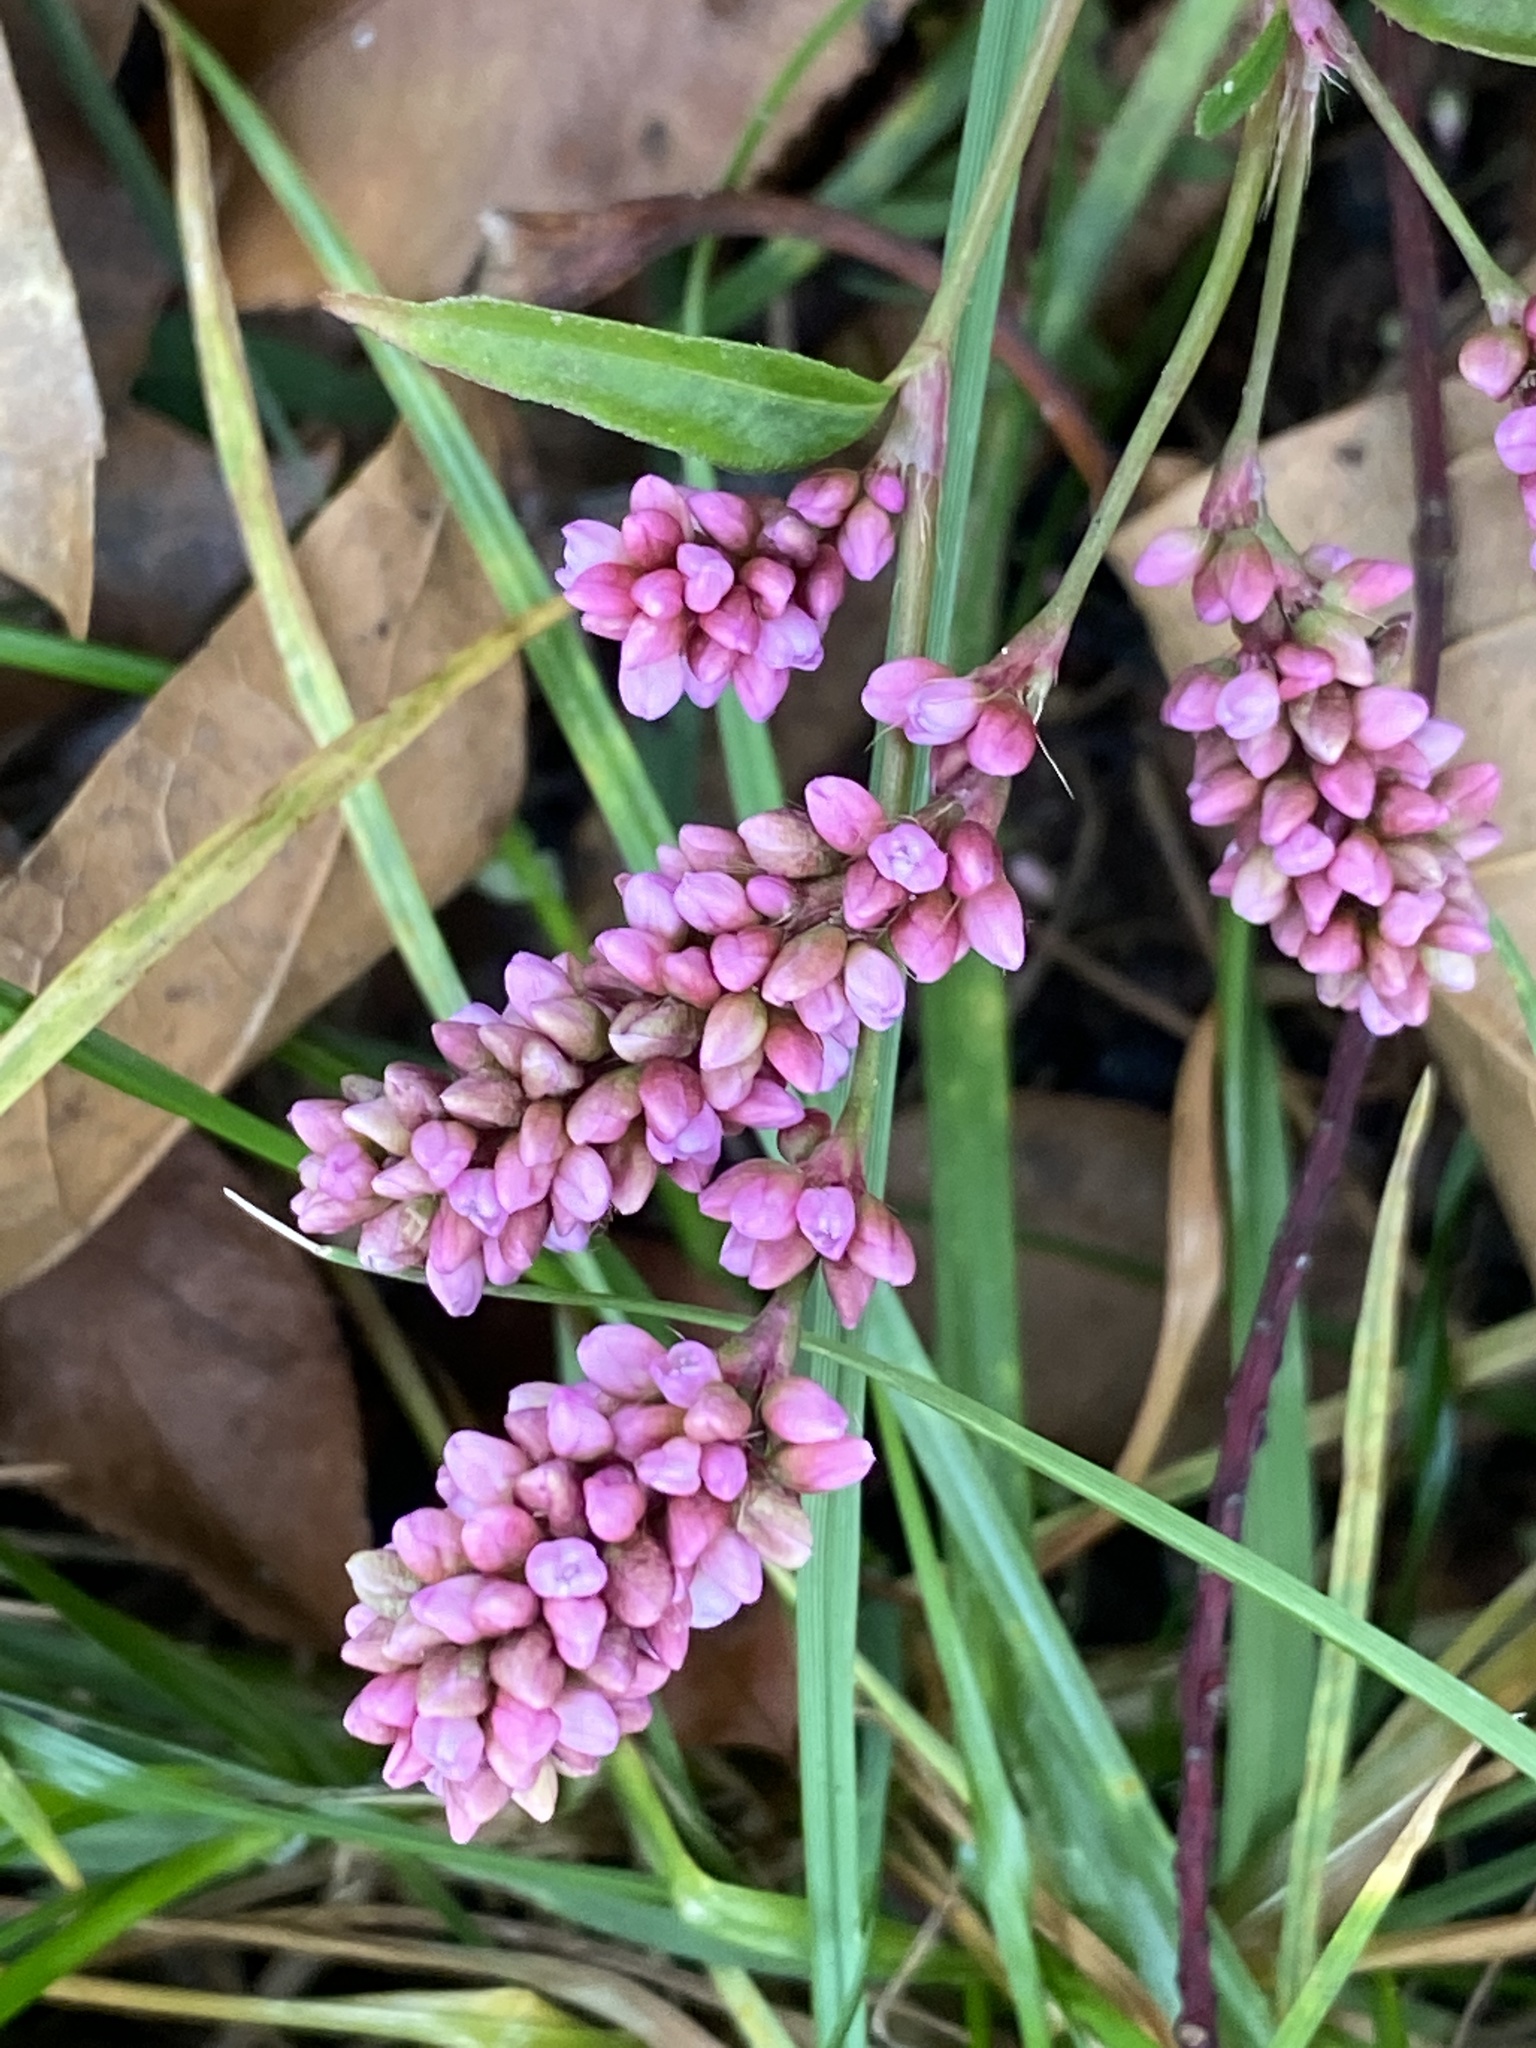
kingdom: Plantae
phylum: Tracheophyta
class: Magnoliopsida
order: Caryophyllales
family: Polygonaceae
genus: Persicaria
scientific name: Persicaria longiseta
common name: Bristly lady's-thumb
